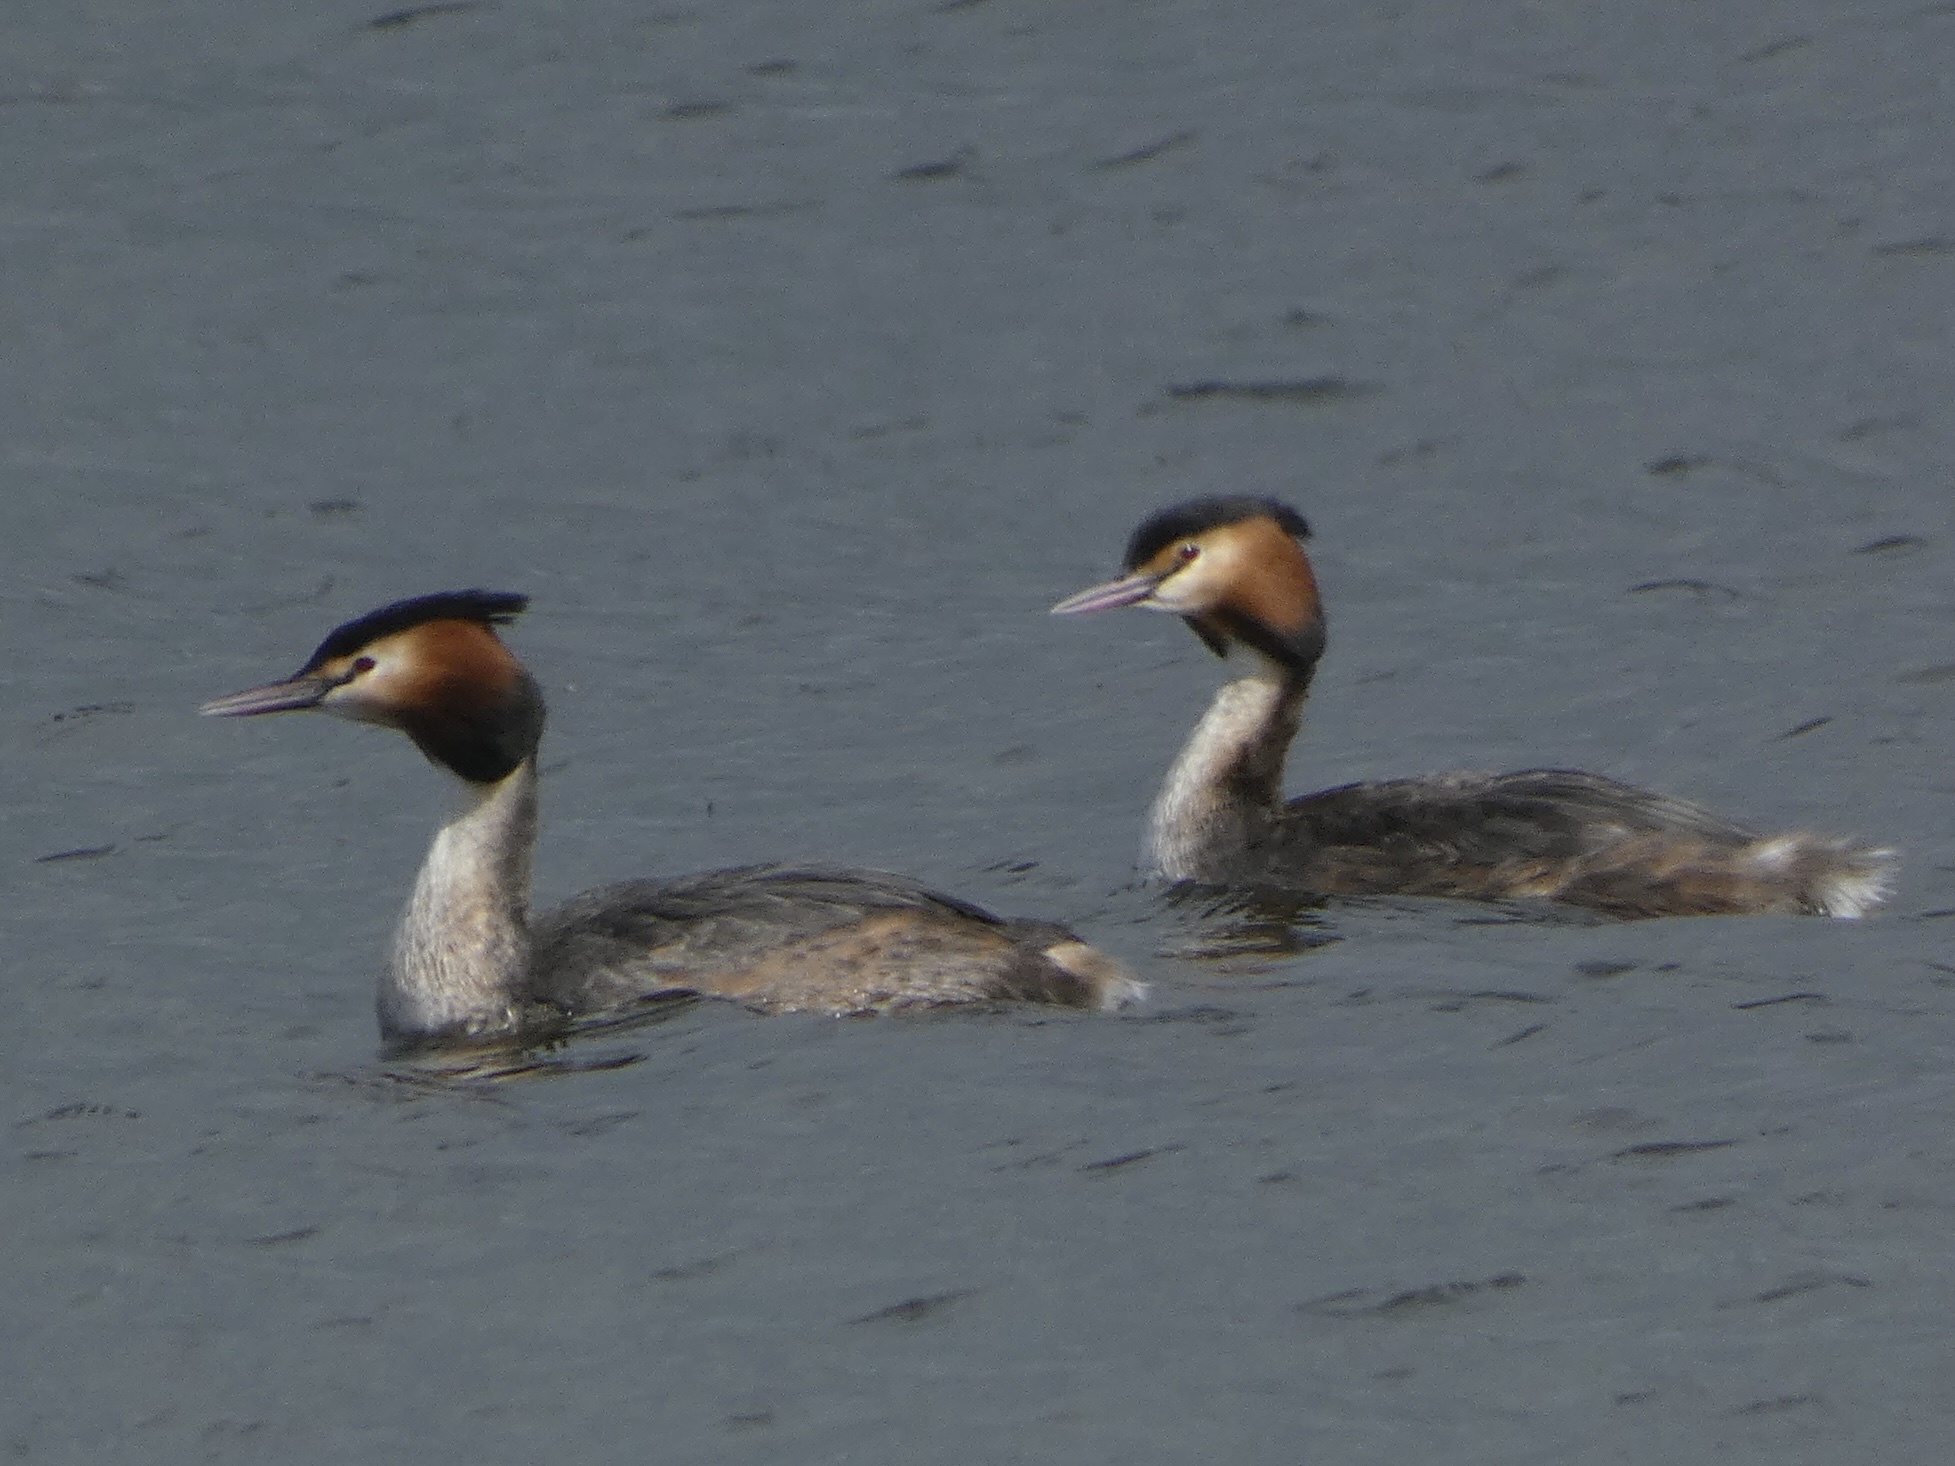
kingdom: Animalia
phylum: Chordata
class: Aves
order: Podicipediformes
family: Podicipedidae
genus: Podiceps
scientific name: Podiceps cristatus
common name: Great crested grebe
